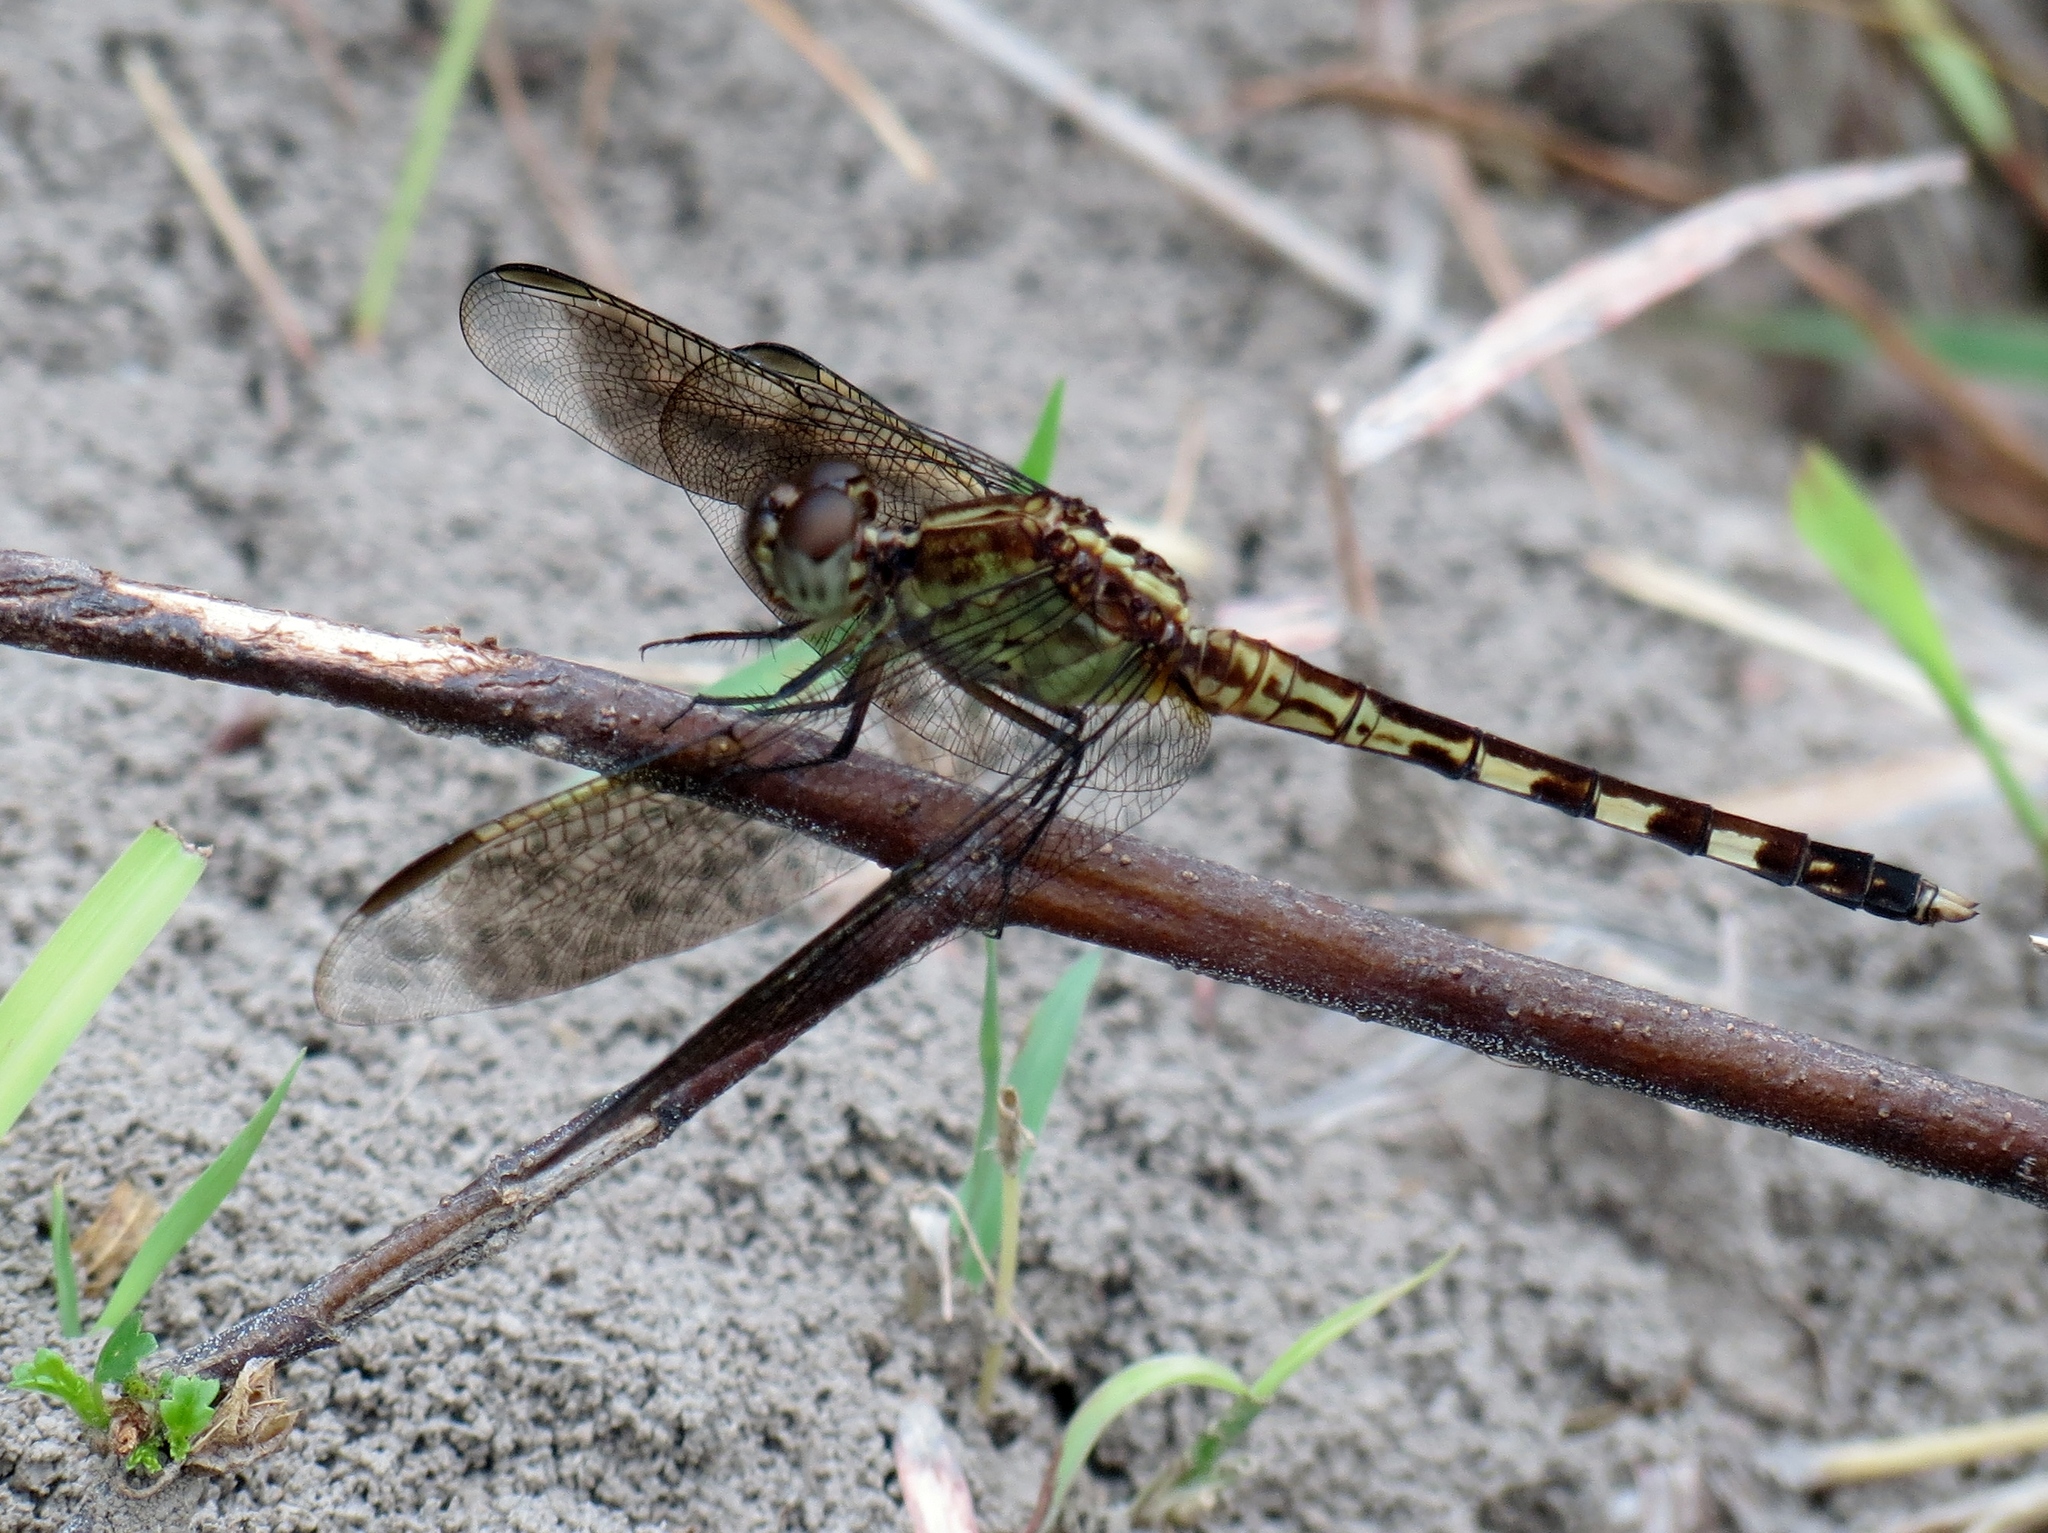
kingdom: Animalia
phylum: Arthropoda
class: Insecta
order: Odonata
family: Libellulidae
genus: Erythrodiplax
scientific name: Erythrodiplax umbrata
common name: Band-winged dragonlet
